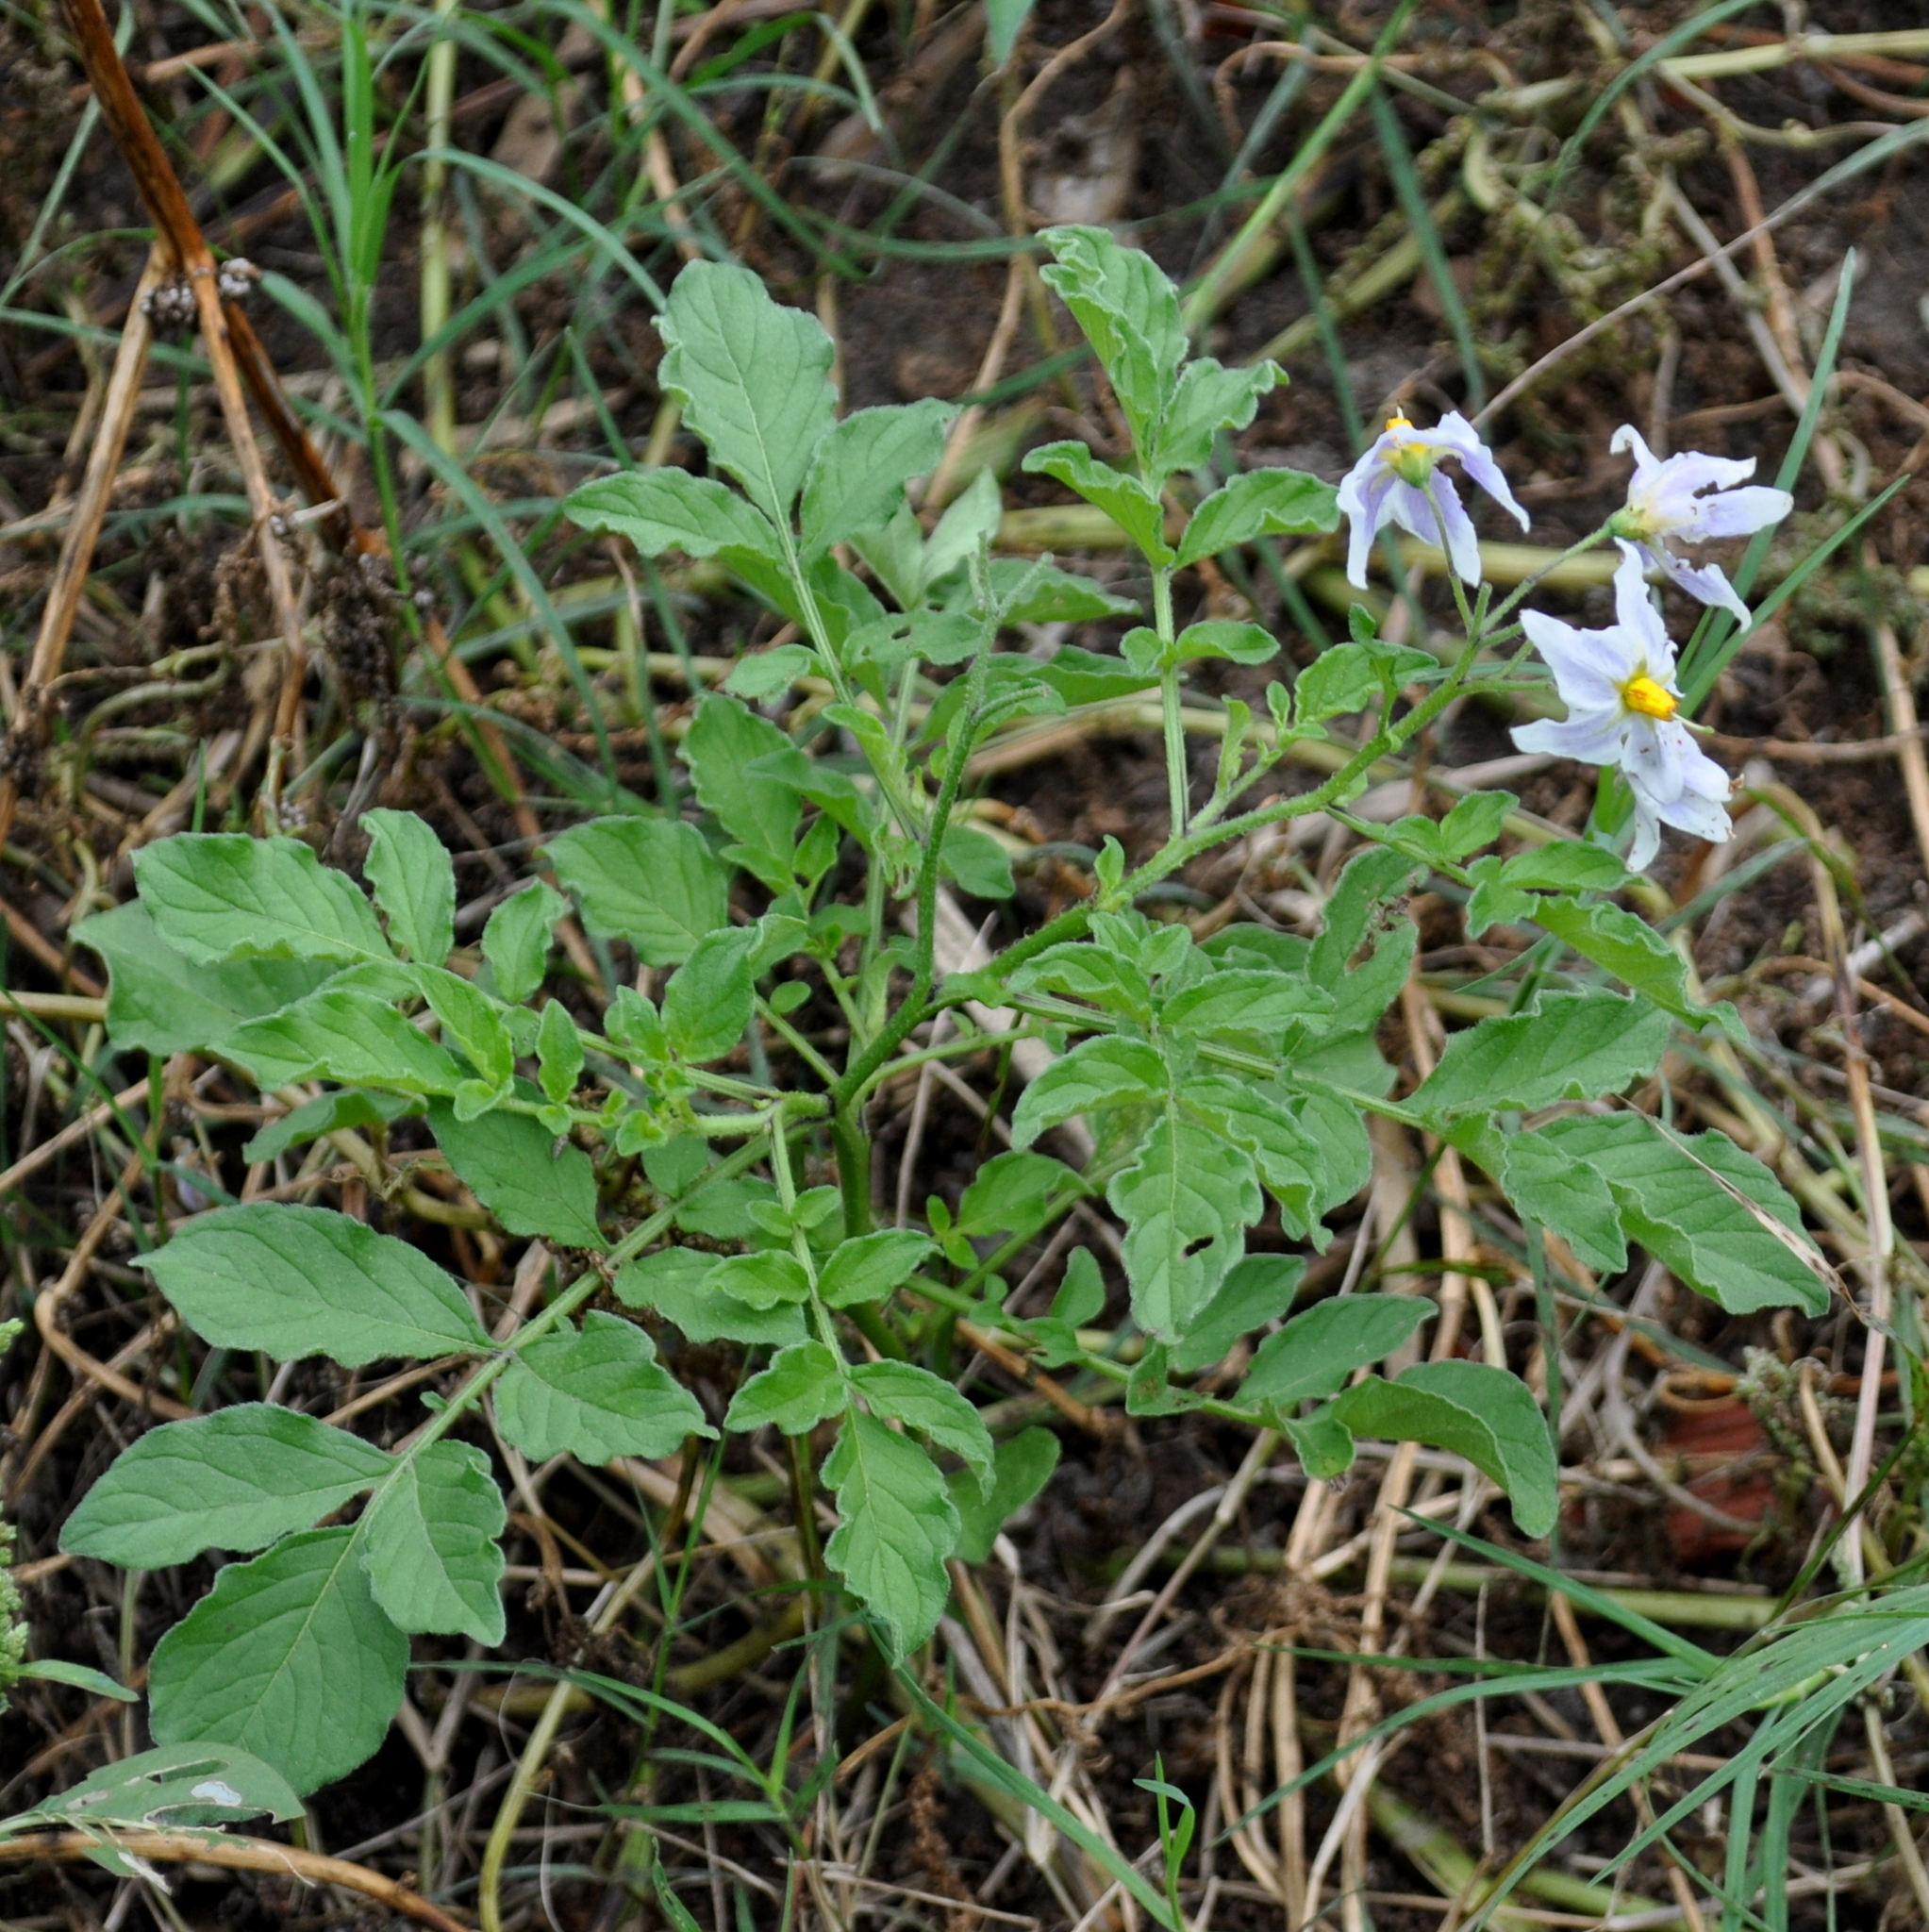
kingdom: Plantae
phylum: Tracheophyta
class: Magnoliopsida
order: Solanales
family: Solanaceae
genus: Solanum
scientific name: Solanum commersonii
